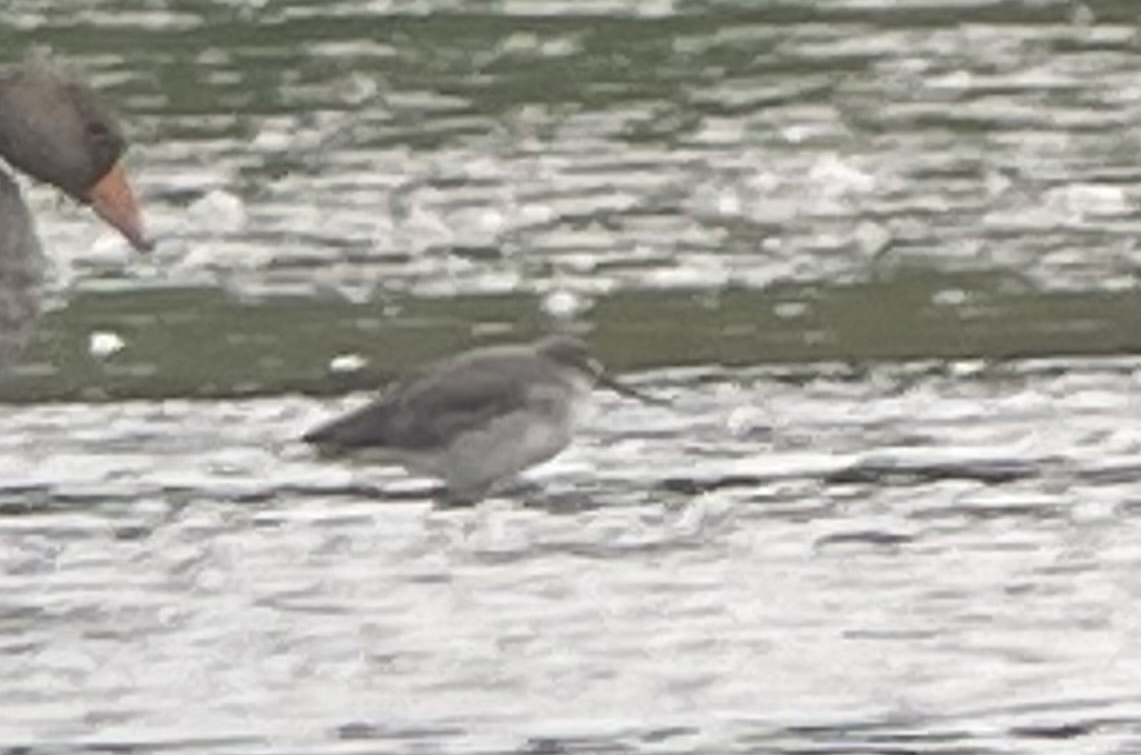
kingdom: Animalia
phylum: Chordata
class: Aves
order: Charadriiformes
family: Scolopacidae
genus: Tringa
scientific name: Tringa erythropus
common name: Spotted redshank
